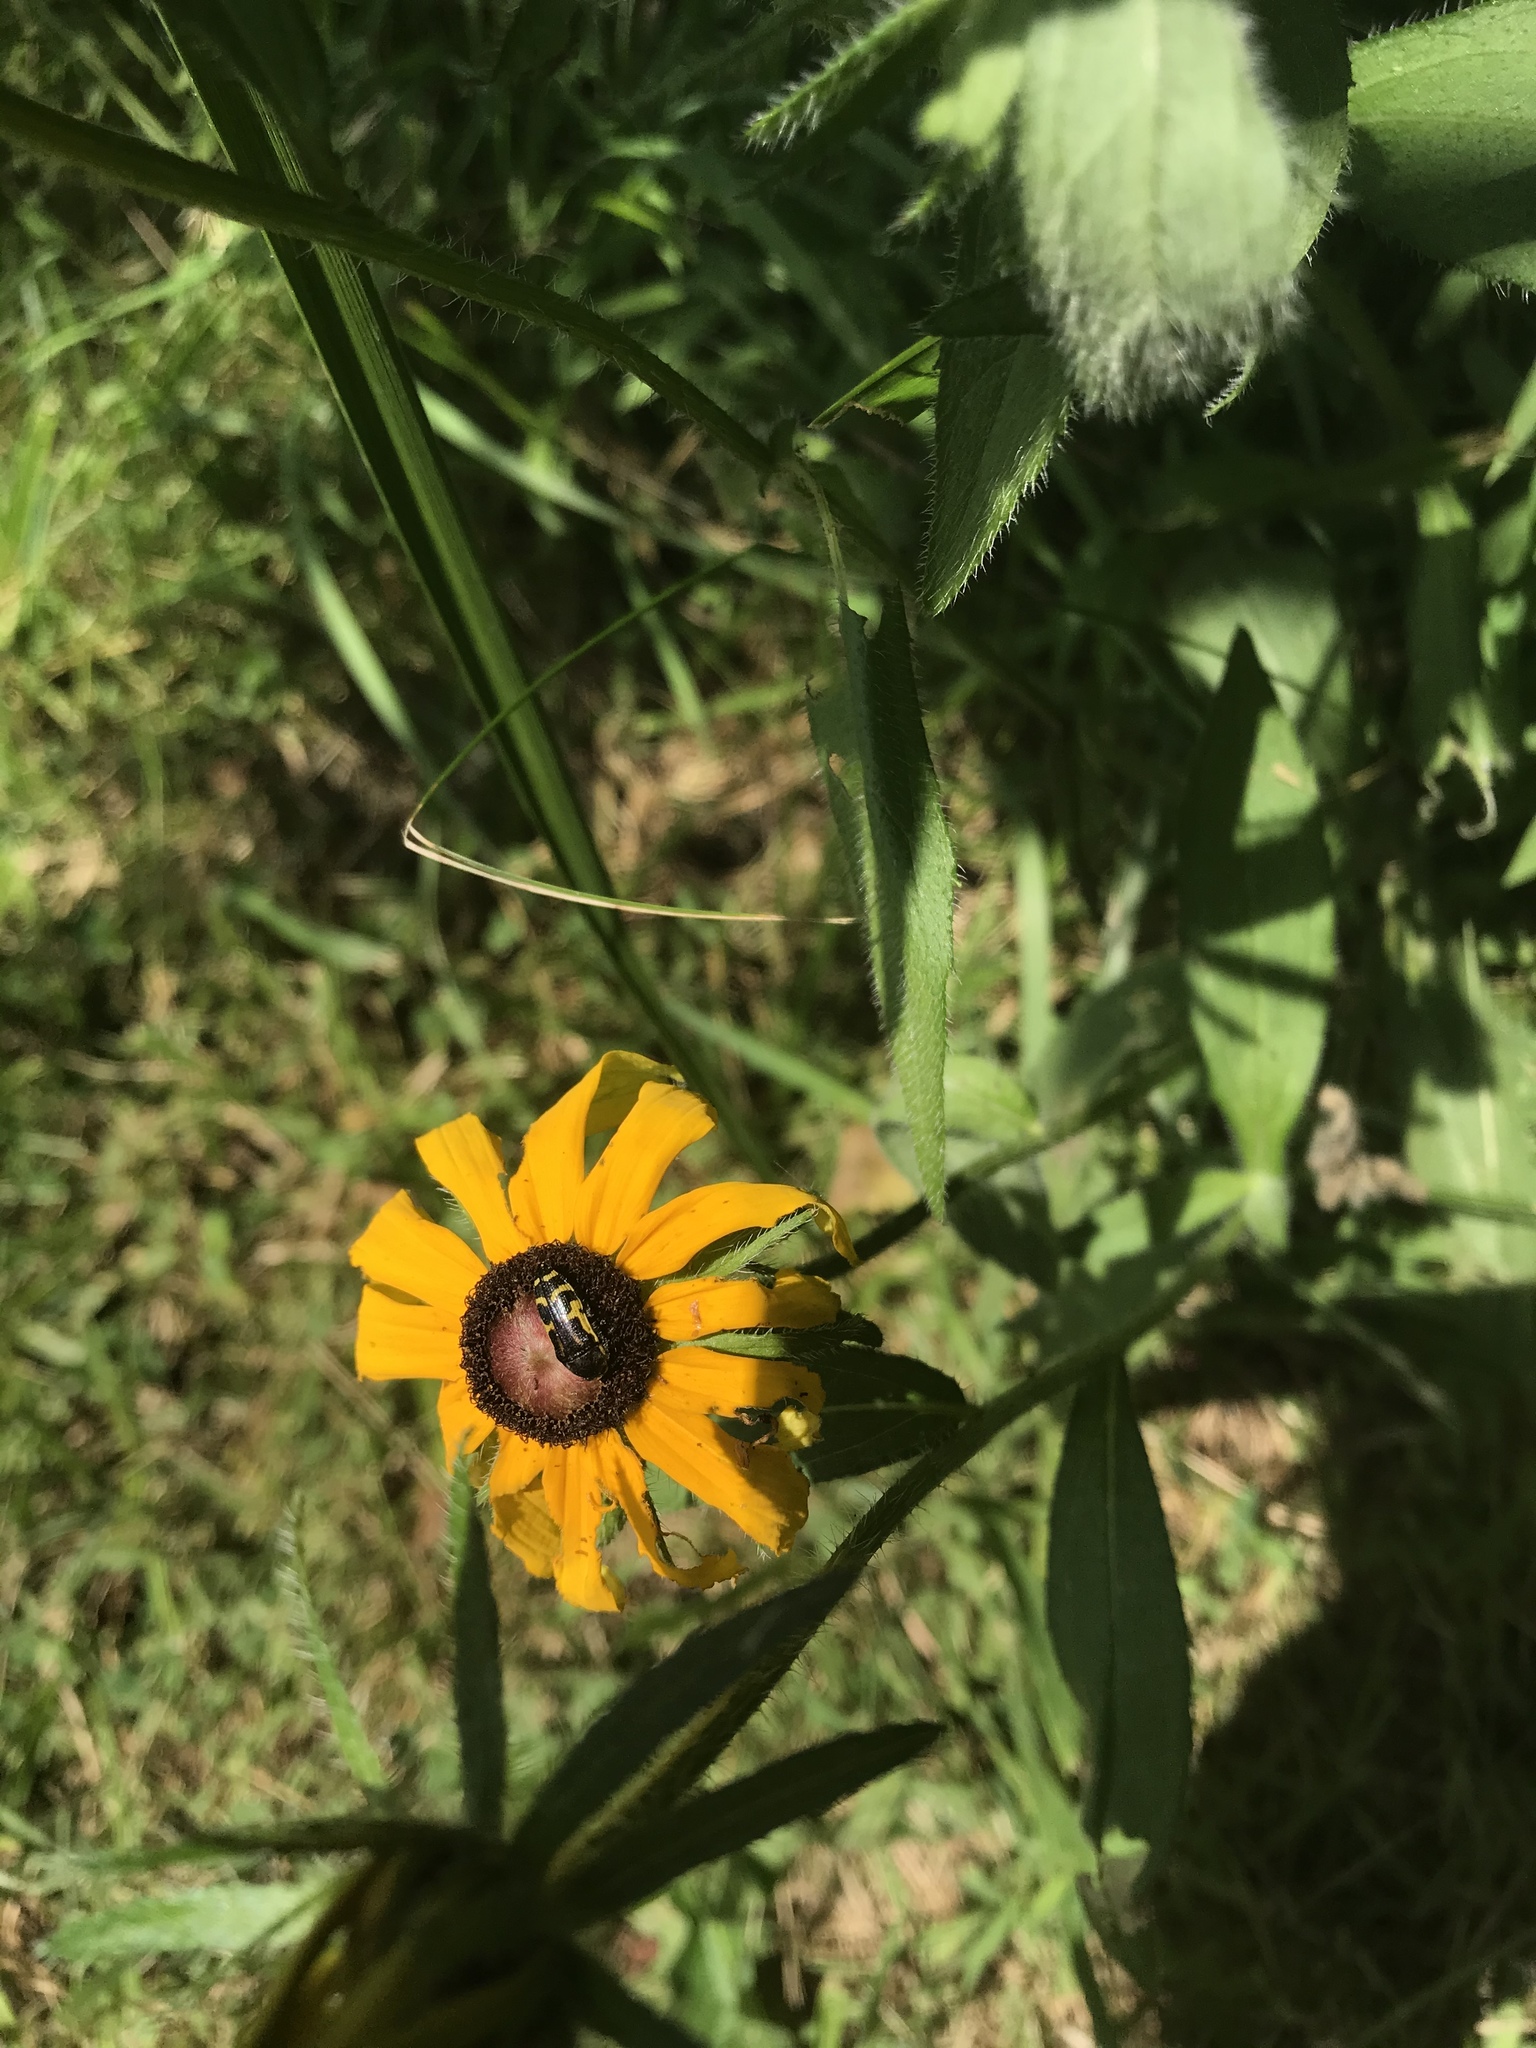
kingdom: Animalia
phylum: Arthropoda
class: Insecta
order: Coleoptera
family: Buprestidae
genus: Acmaeodera
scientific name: Acmaeodera pulchella
